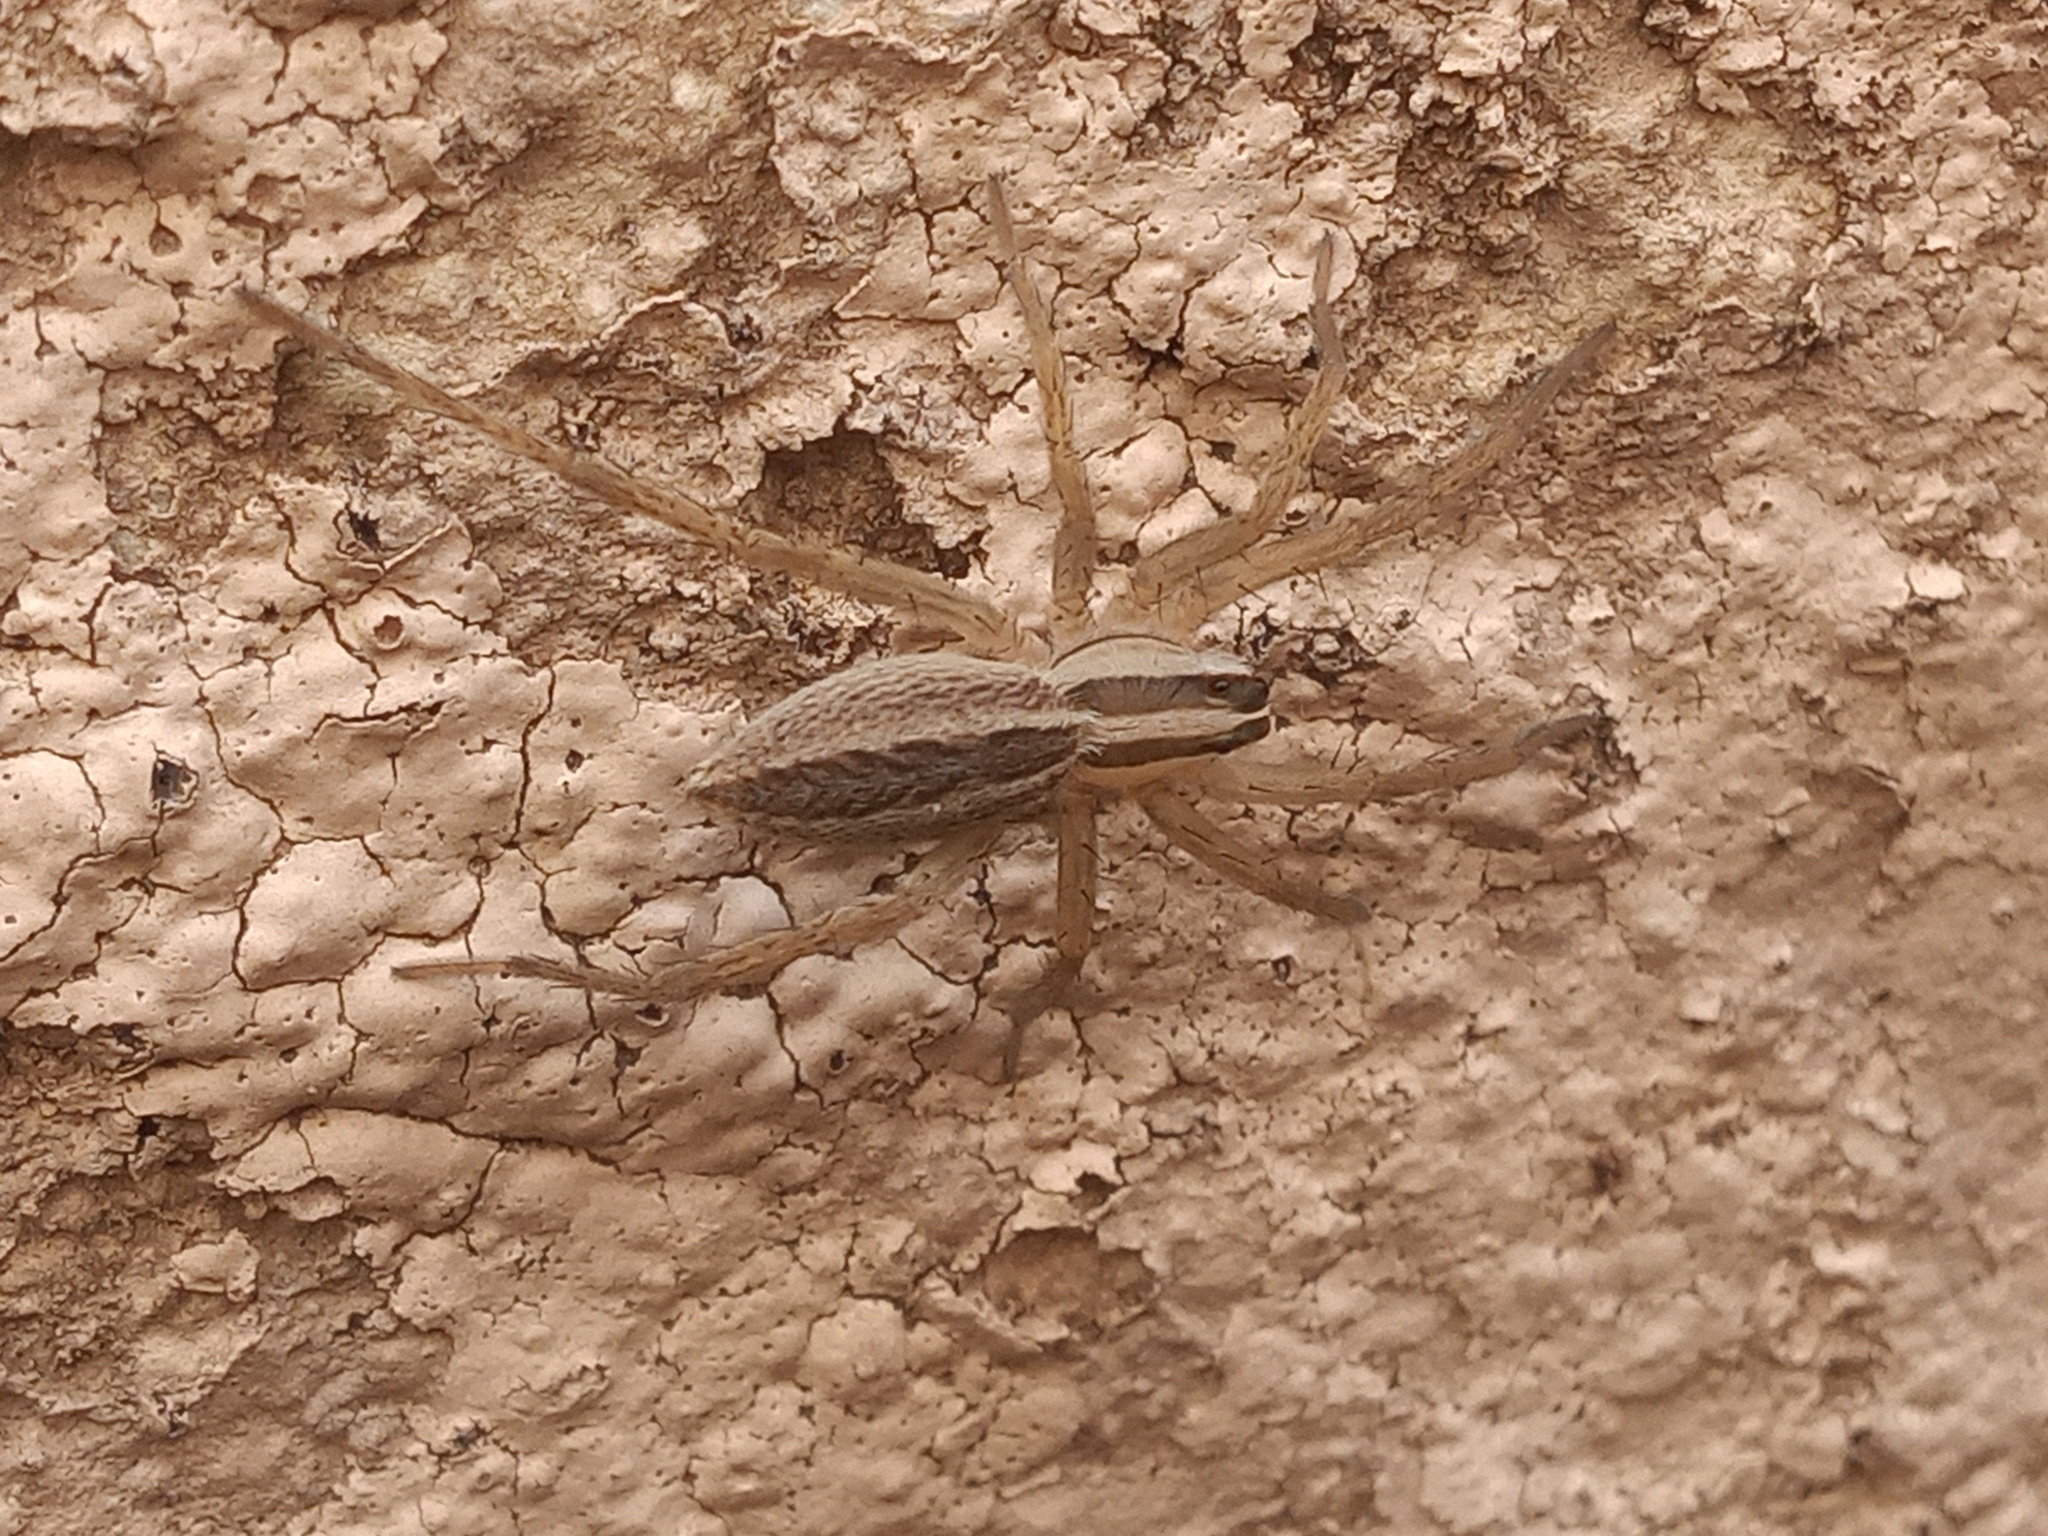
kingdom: Animalia
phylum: Arthropoda
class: Arachnida
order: Araneae
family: Lycosidae
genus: Rabidosa
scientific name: Rabidosa rabida
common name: Rabid wolf spider
